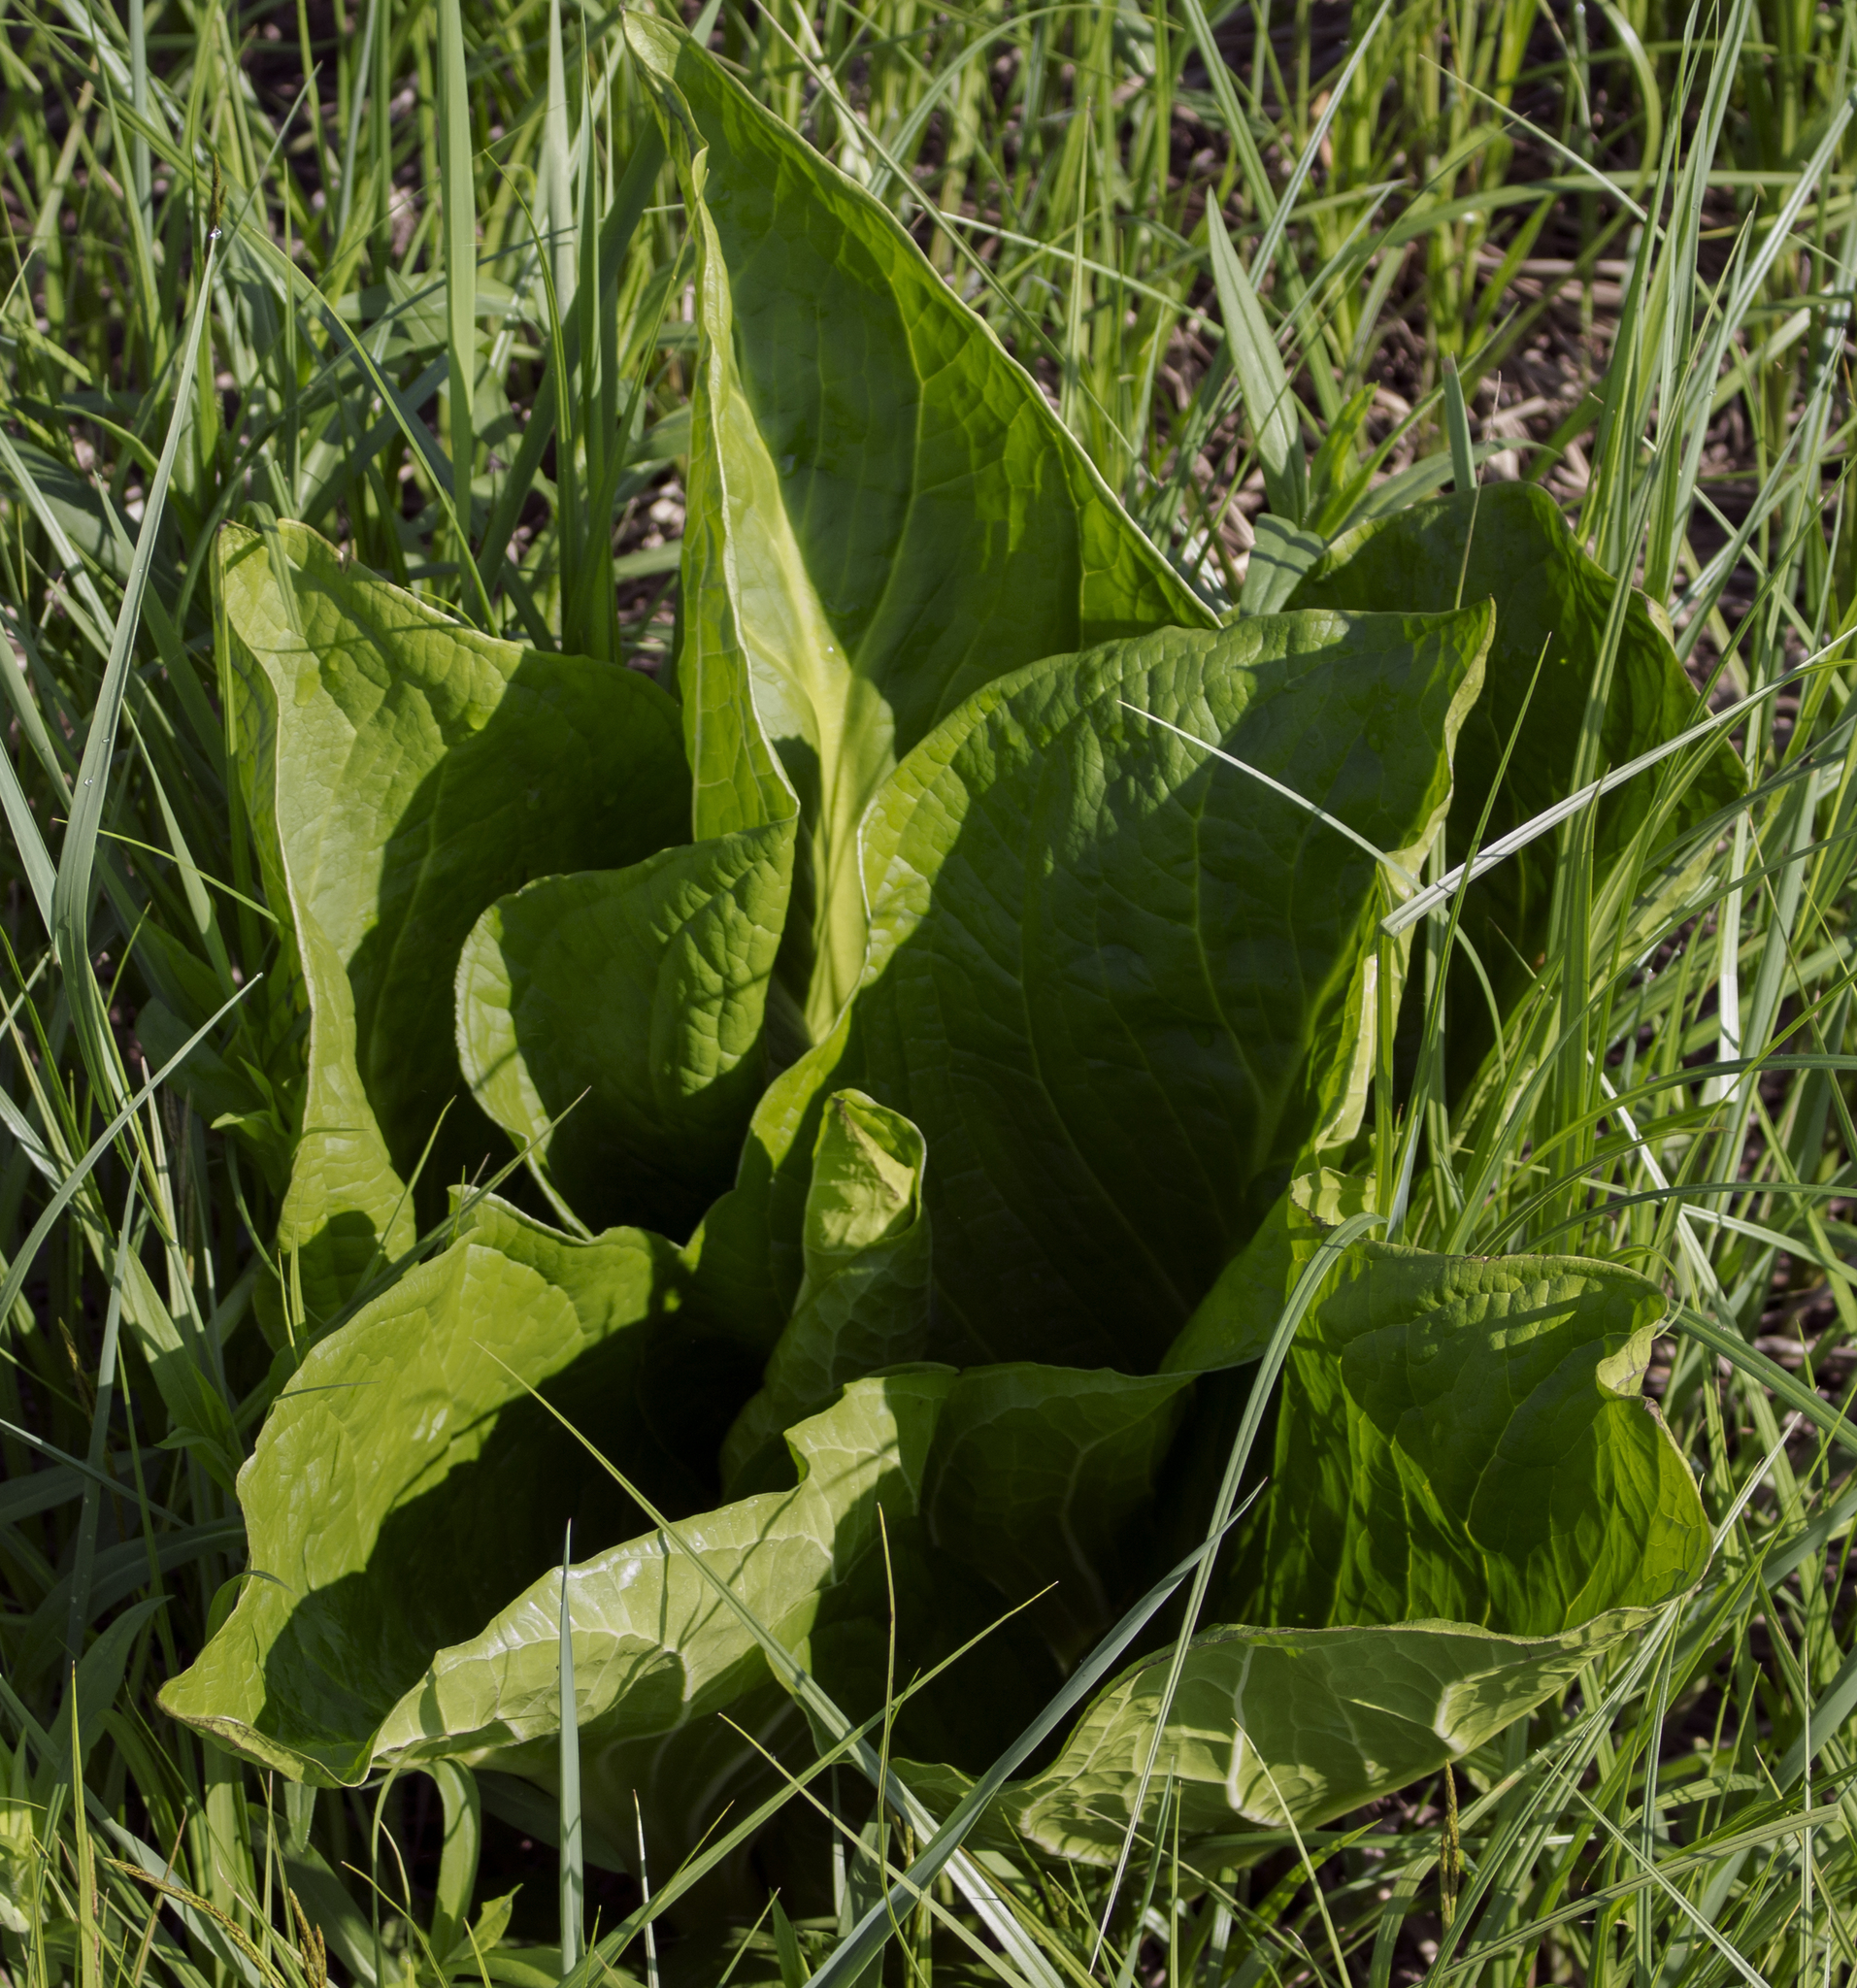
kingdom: Plantae
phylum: Tracheophyta
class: Liliopsida
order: Alismatales
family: Araceae
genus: Symplocarpus
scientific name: Symplocarpus foetidus
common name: Eastern skunk cabbage
